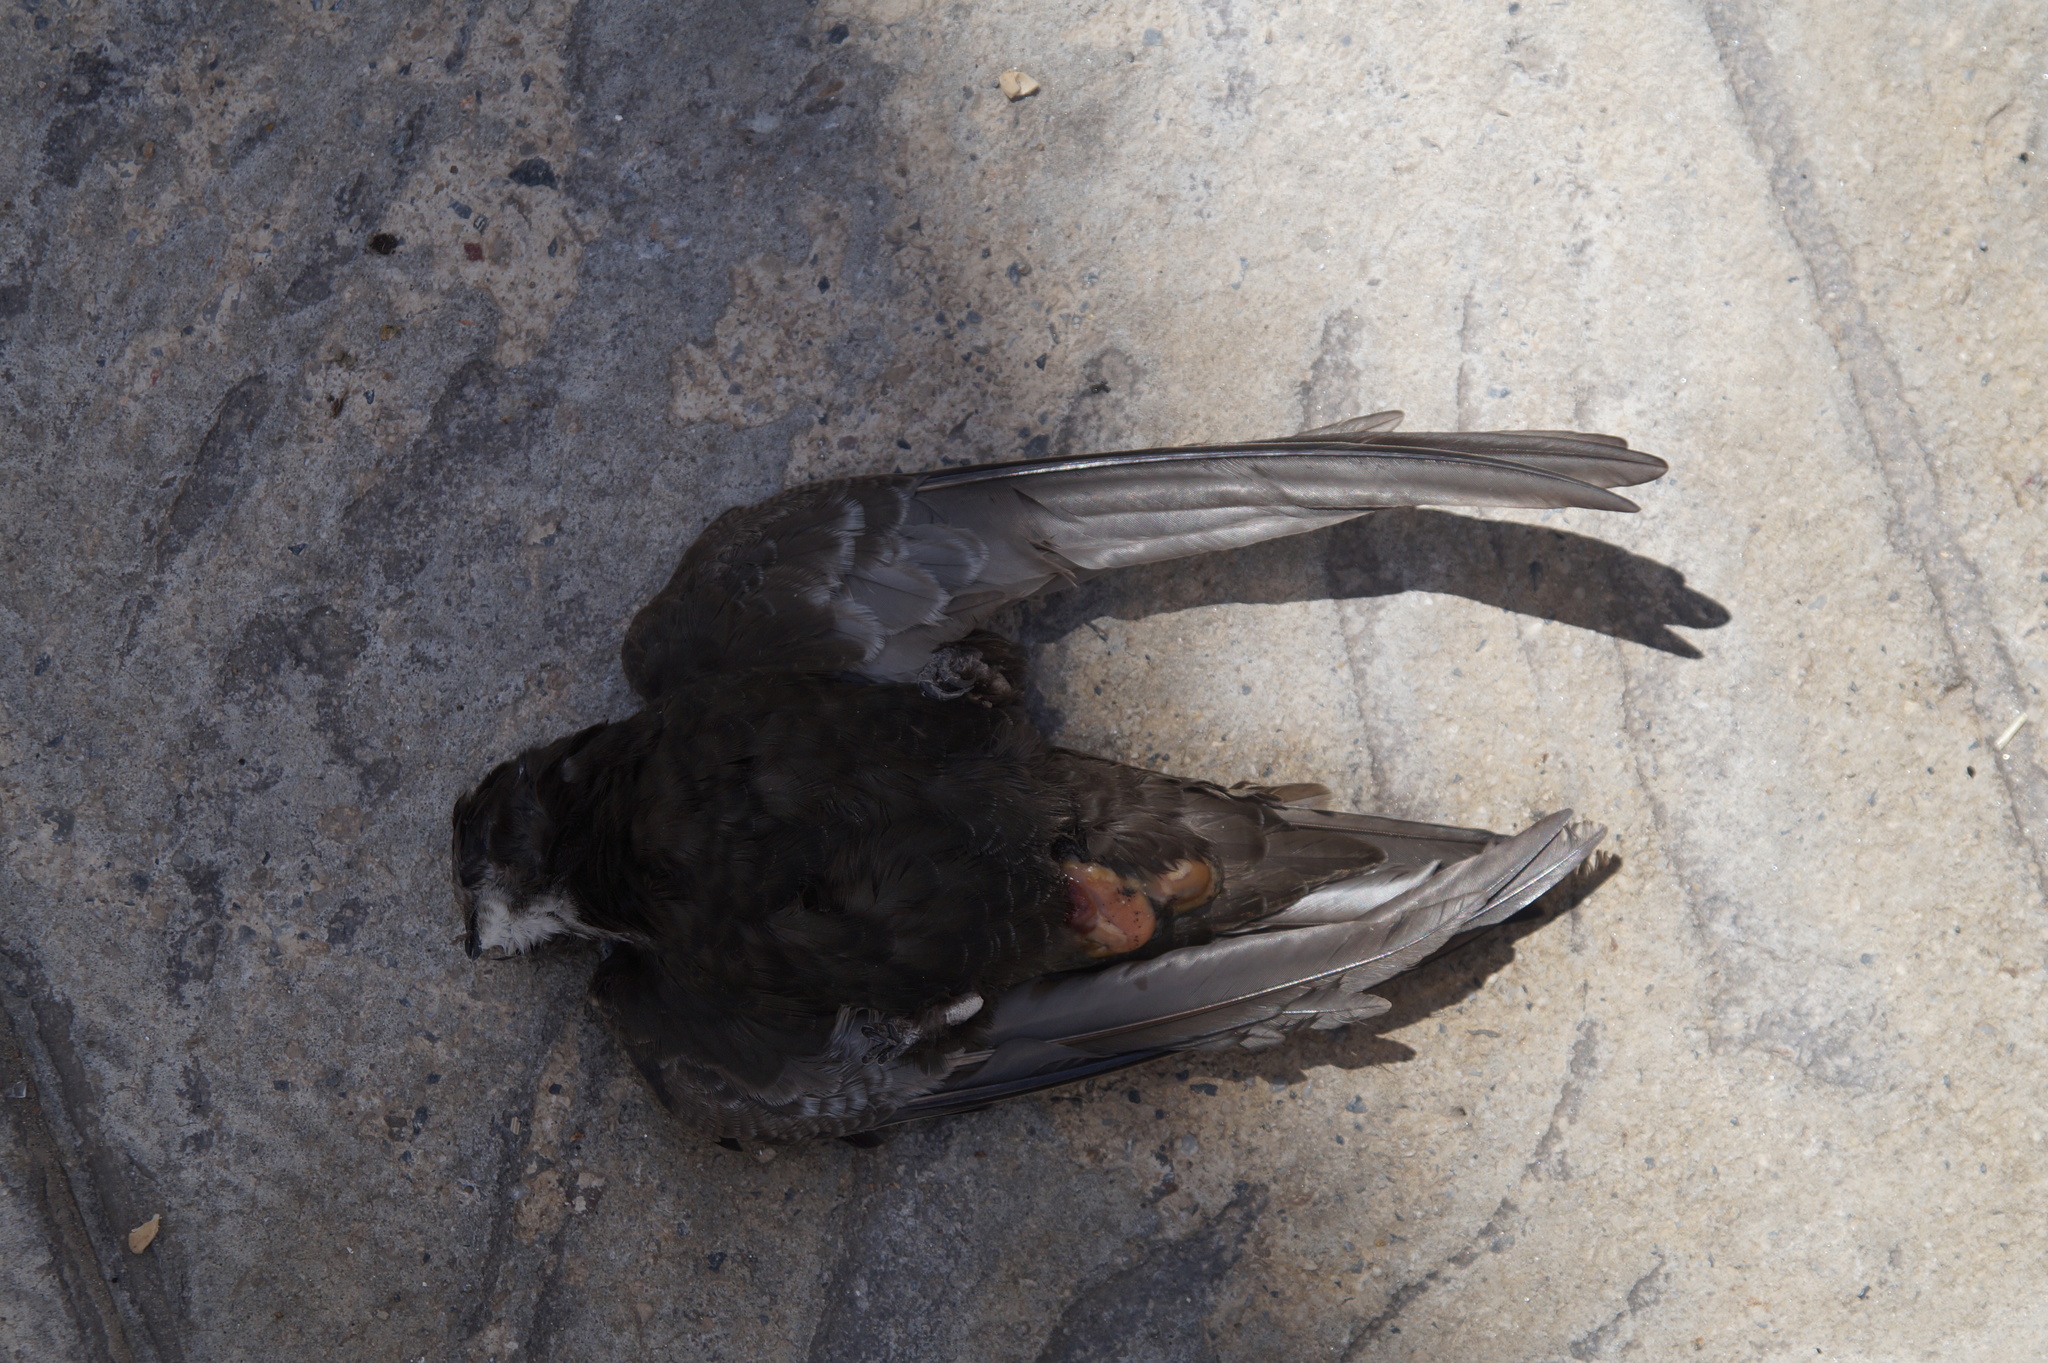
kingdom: Animalia
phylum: Chordata
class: Aves
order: Apodiformes
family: Apodidae
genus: Apus
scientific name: Apus apus
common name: Common swift
